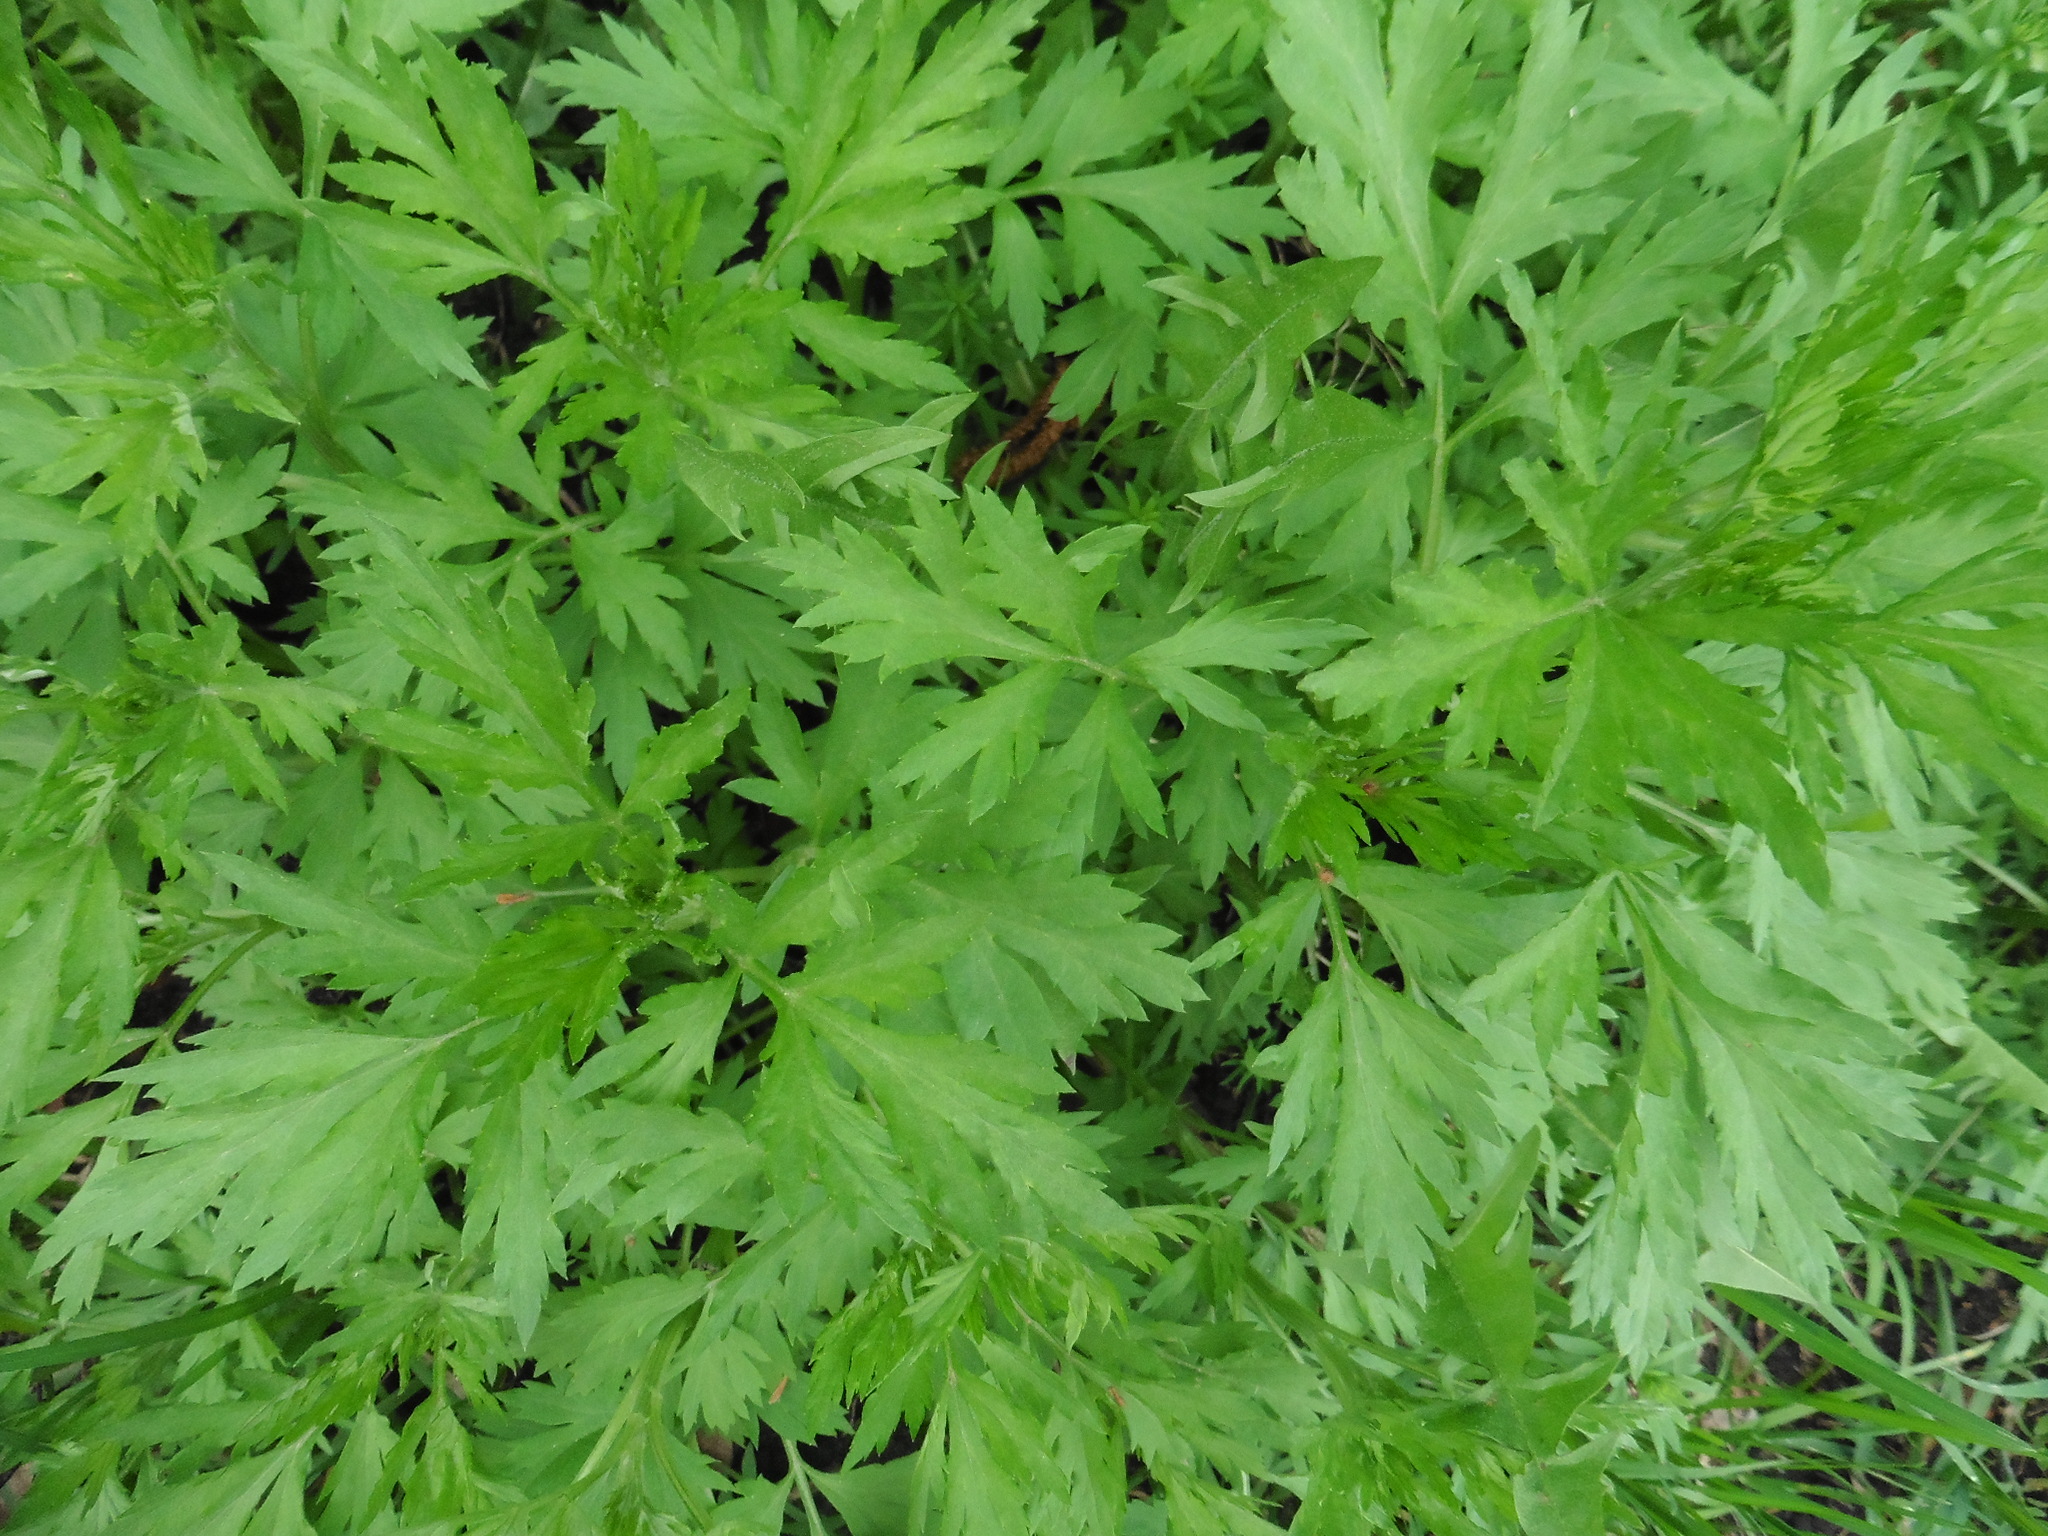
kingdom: Plantae
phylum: Tracheophyta
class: Magnoliopsida
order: Asterales
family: Asteraceae
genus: Artemisia
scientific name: Artemisia vulgaris
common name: Mugwort
